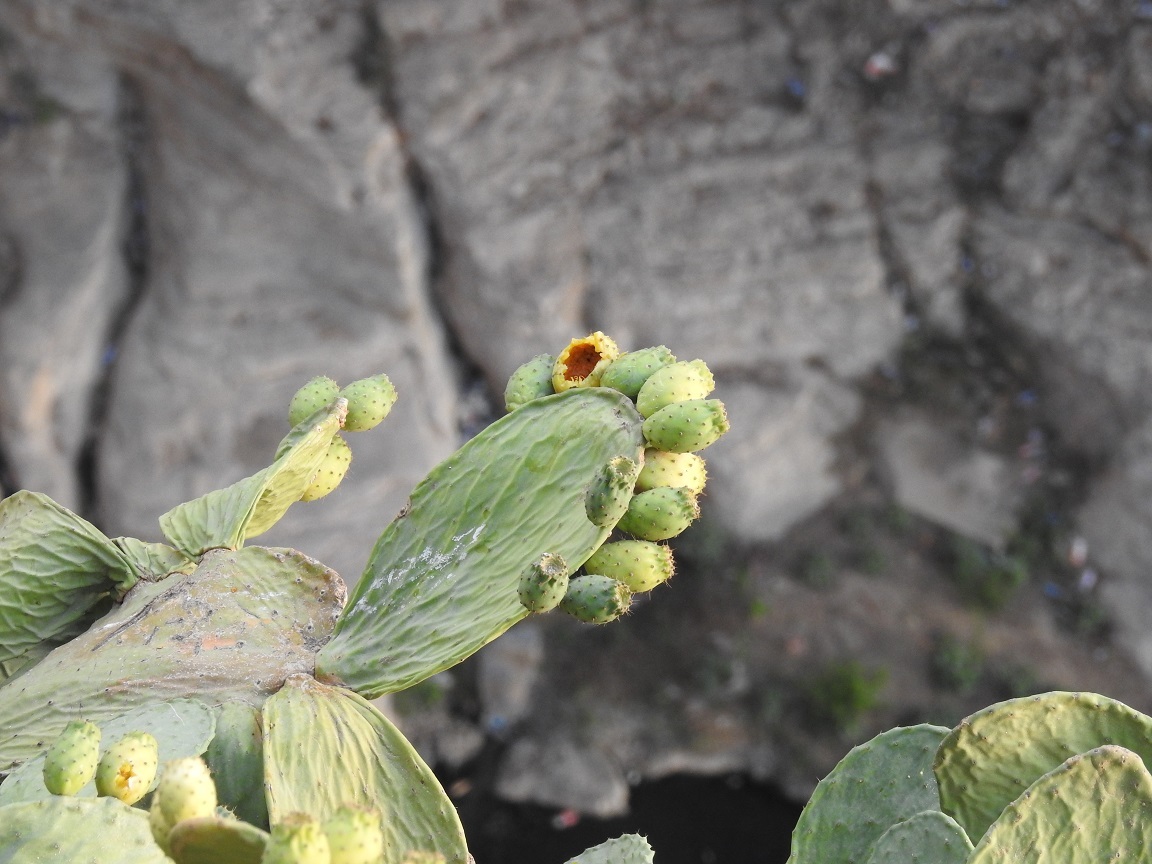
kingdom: Plantae
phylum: Tracheophyta
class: Magnoliopsida
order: Caryophyllales
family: Cactaceae
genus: Opuntia
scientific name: Opuntia ficus-indica
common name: Barbary fig
